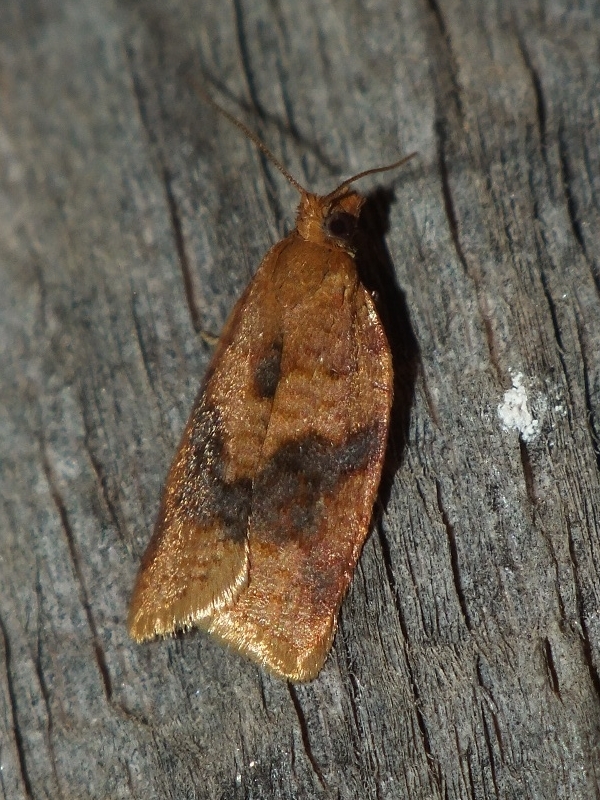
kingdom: Animalia
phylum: Arthropoda
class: Insecta
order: Lepidoptera
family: Tortricidae
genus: Clepsis
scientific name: Clepsis neglectana
